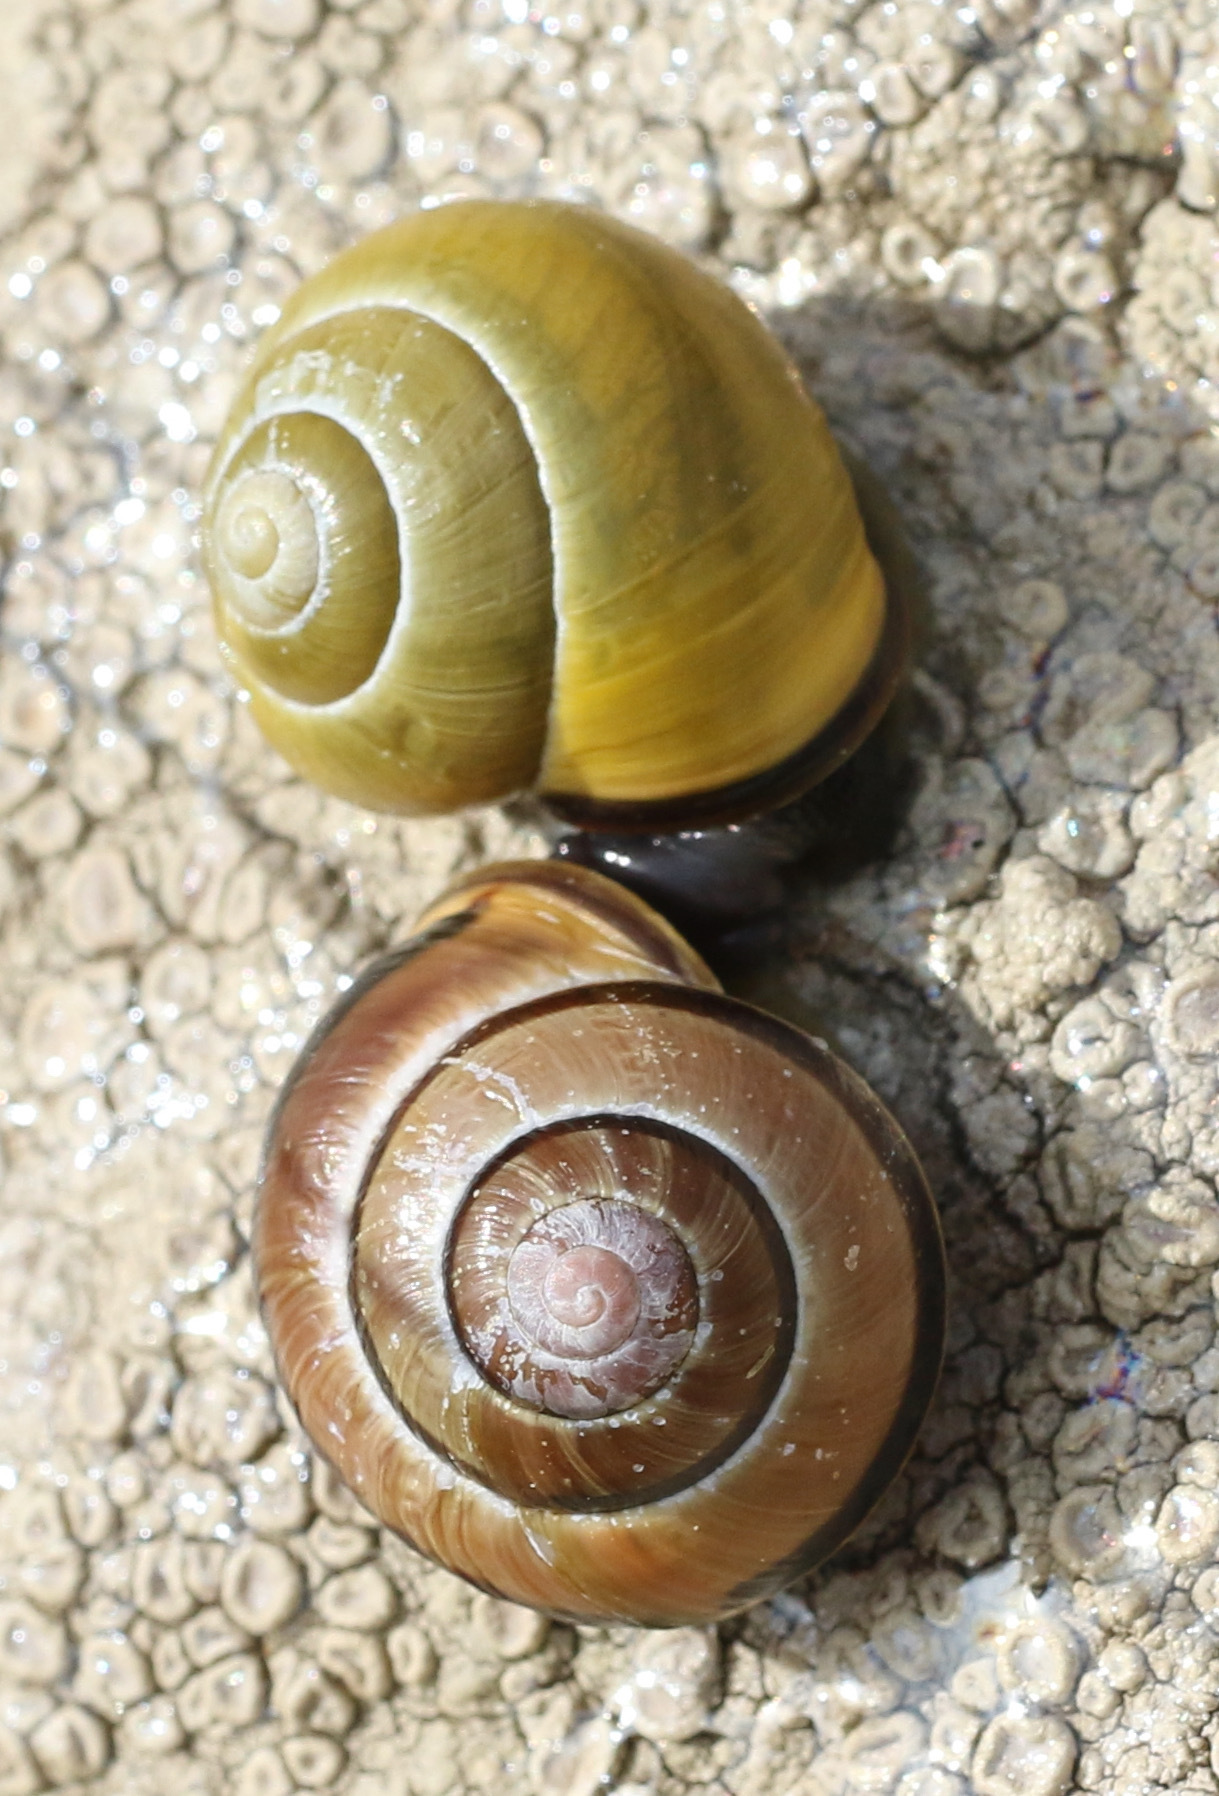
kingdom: Animalia
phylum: Mollusca
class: Gastropoda
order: Stylommatophora
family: Helicidae
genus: Cepaea
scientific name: Cepaea nemoralis
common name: Grovesnail
